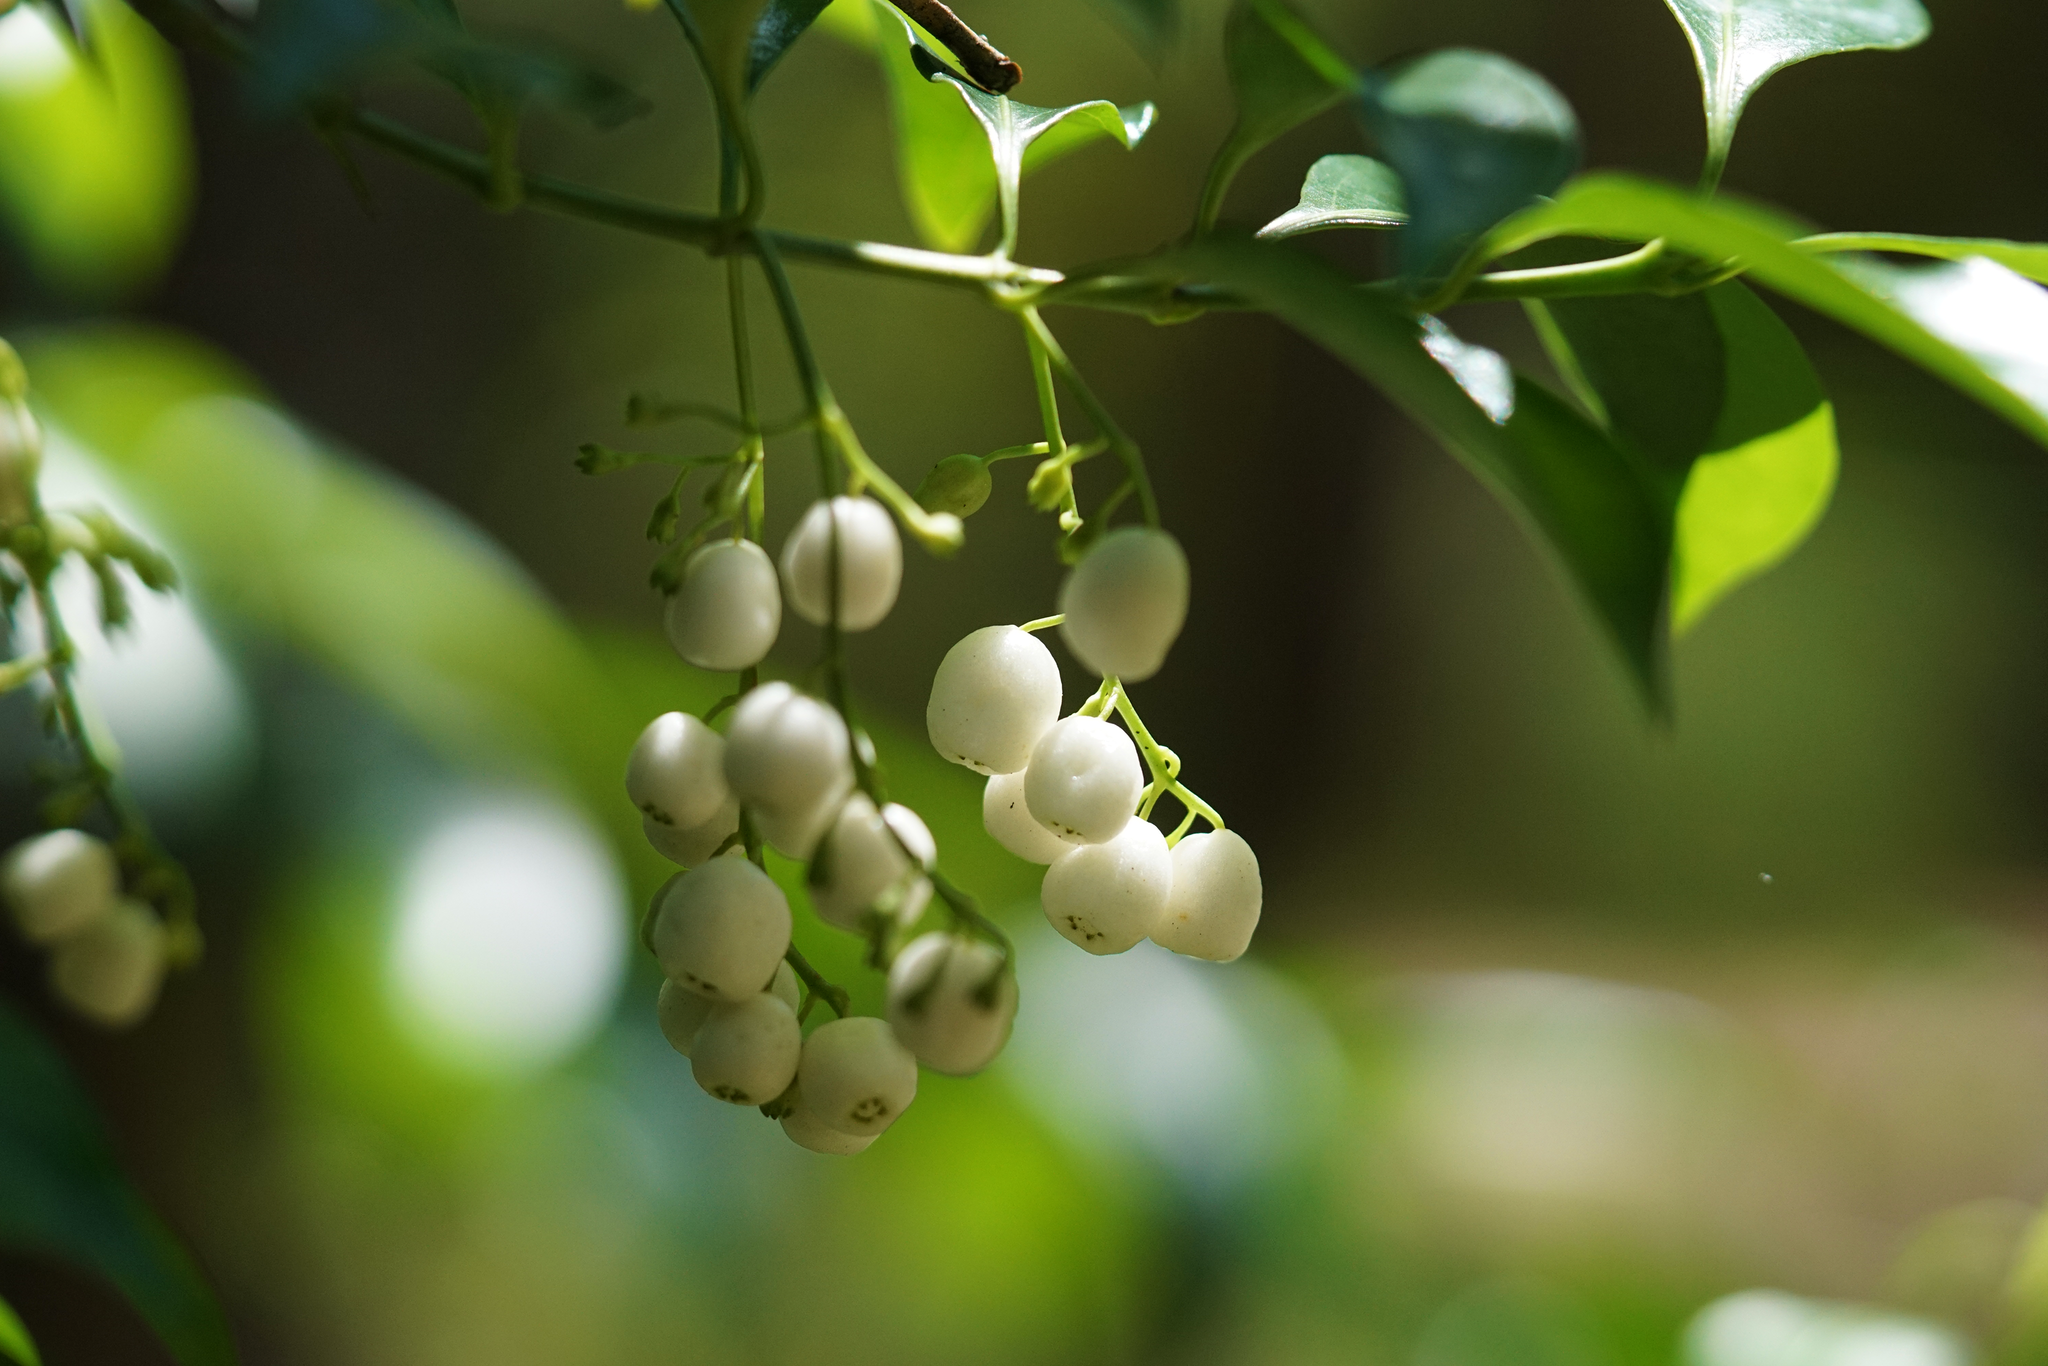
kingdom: Plantae
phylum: Tracheophyta
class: Magnoliopsida
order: Gentianales
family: Rubiaceae
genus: Chiococca
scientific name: Chiococca alba
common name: Snowberry
